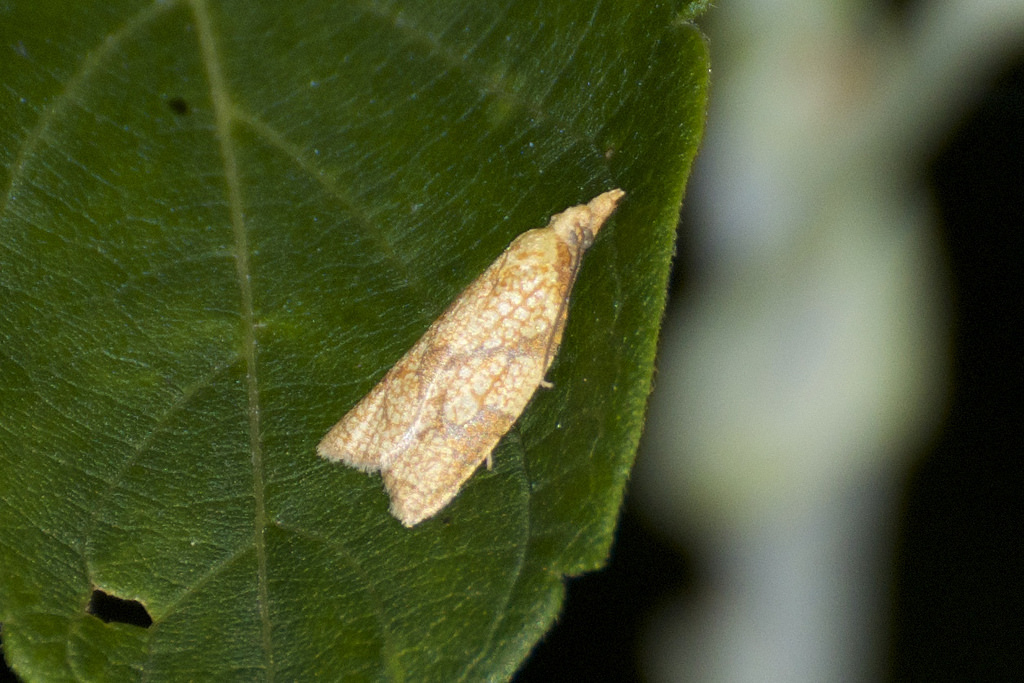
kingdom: Animalia
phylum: Arthropoda
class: Insecta
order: Lepidoptera
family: Tortricidae
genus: Cenopis
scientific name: Cenopis reticulatana
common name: Reticulated fruitworm moth
